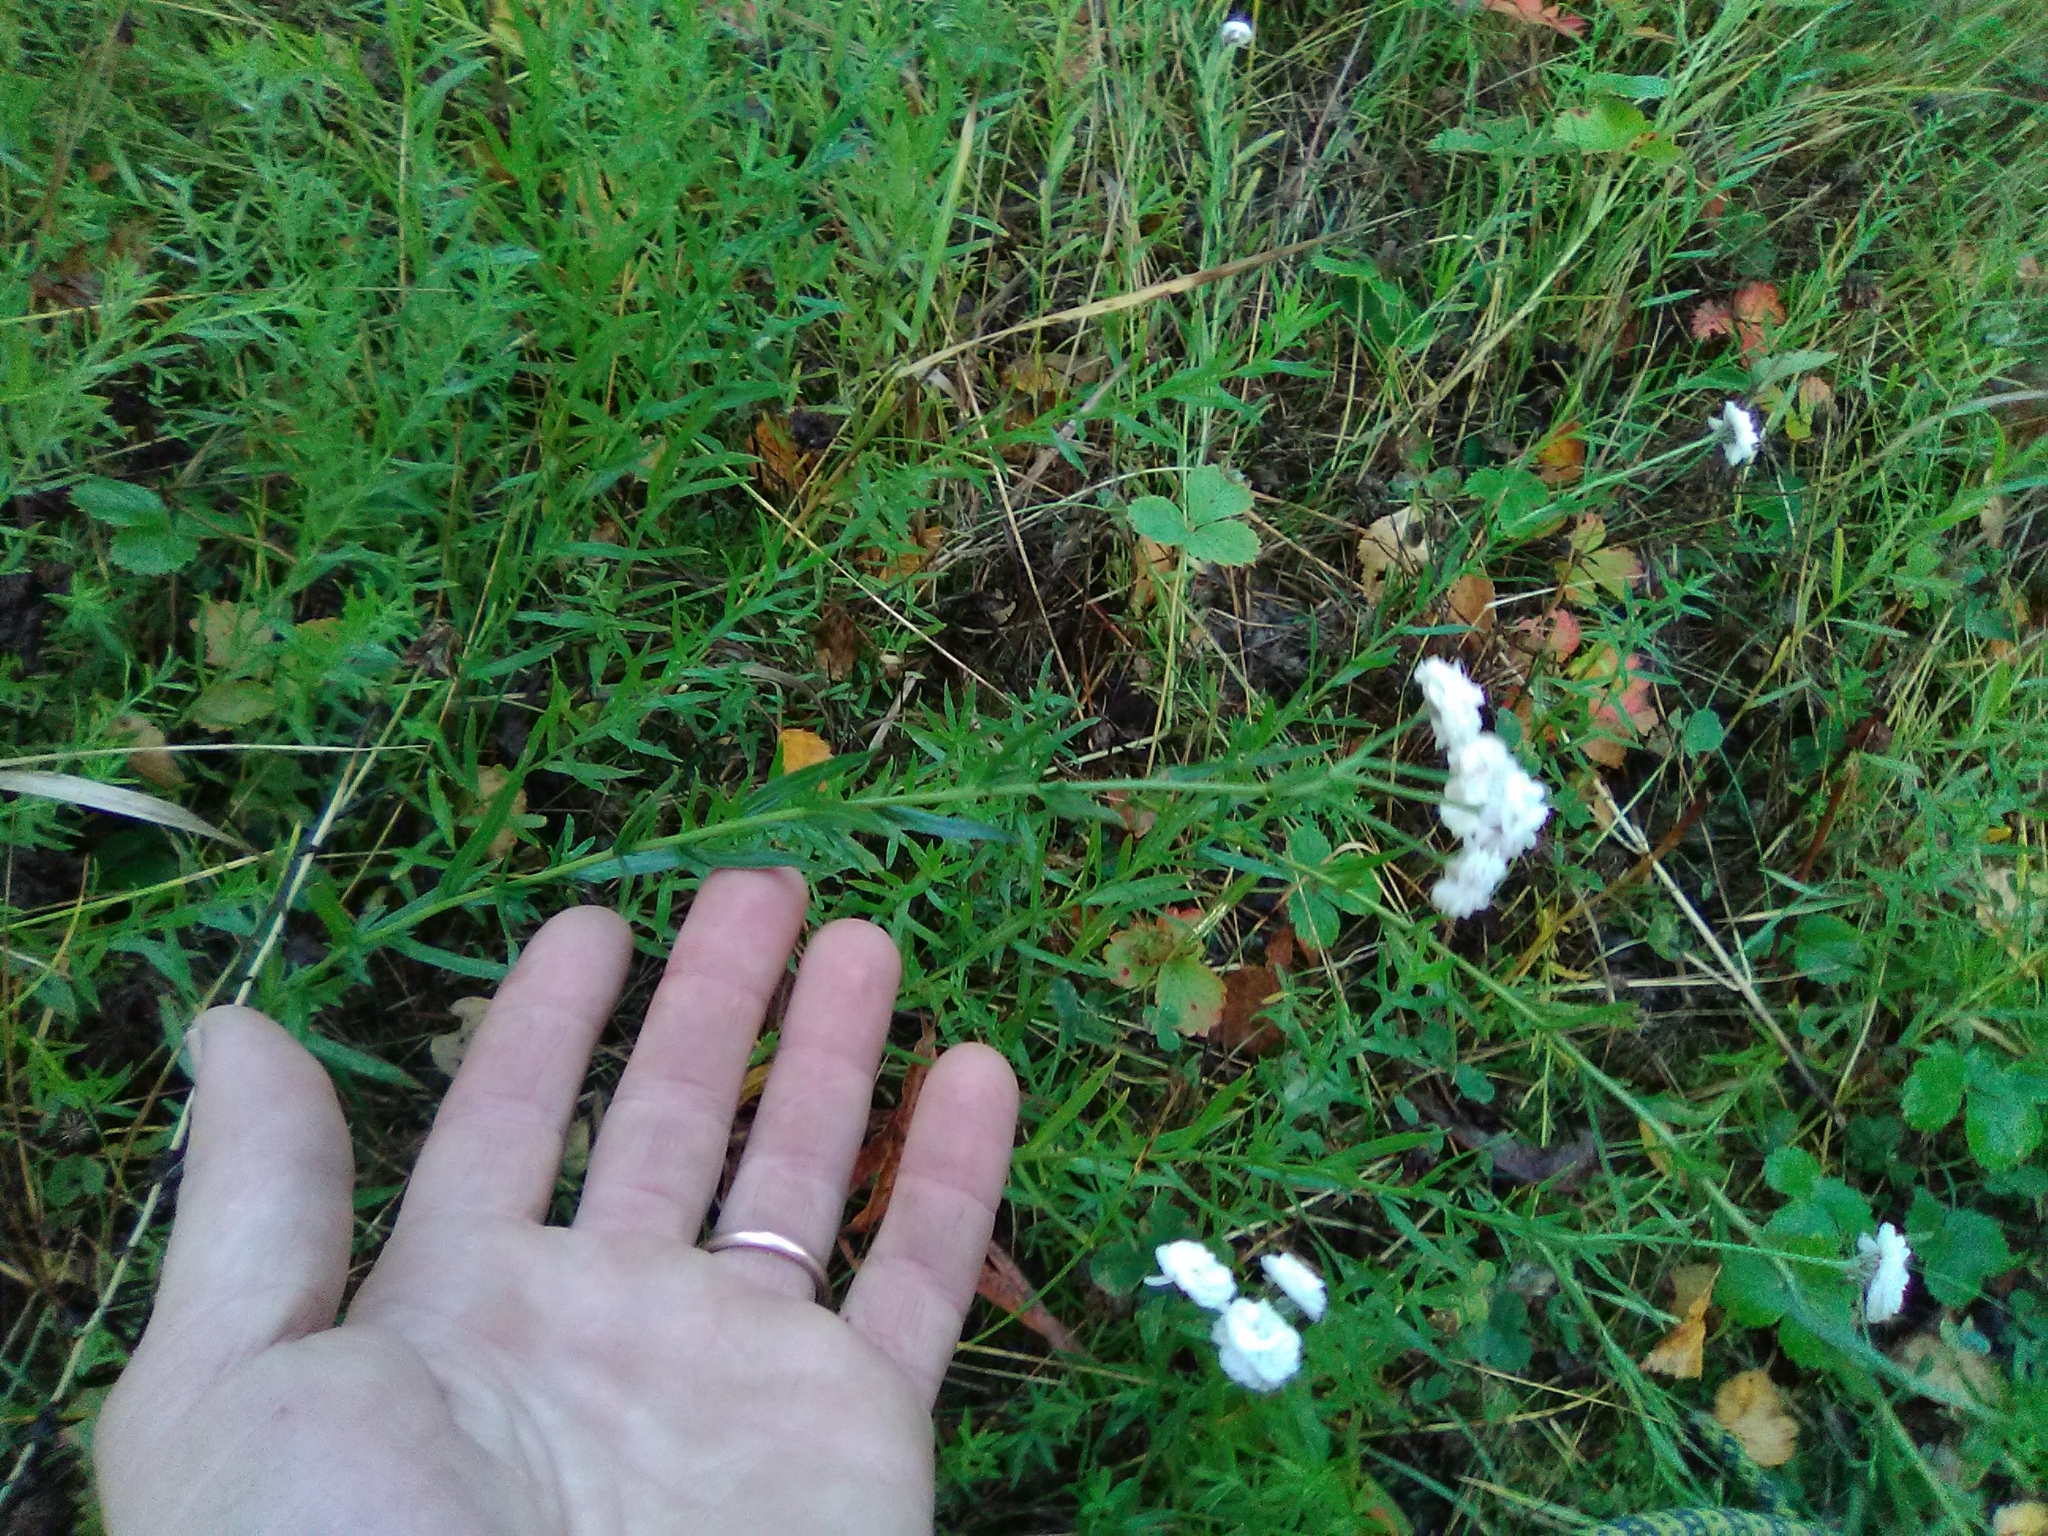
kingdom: Plantae
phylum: Tracheophyta
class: Magnoliopsida
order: Asterales
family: Asteraceae
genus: Achillea
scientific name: Achillea ptarmica
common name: Sneezeweed
